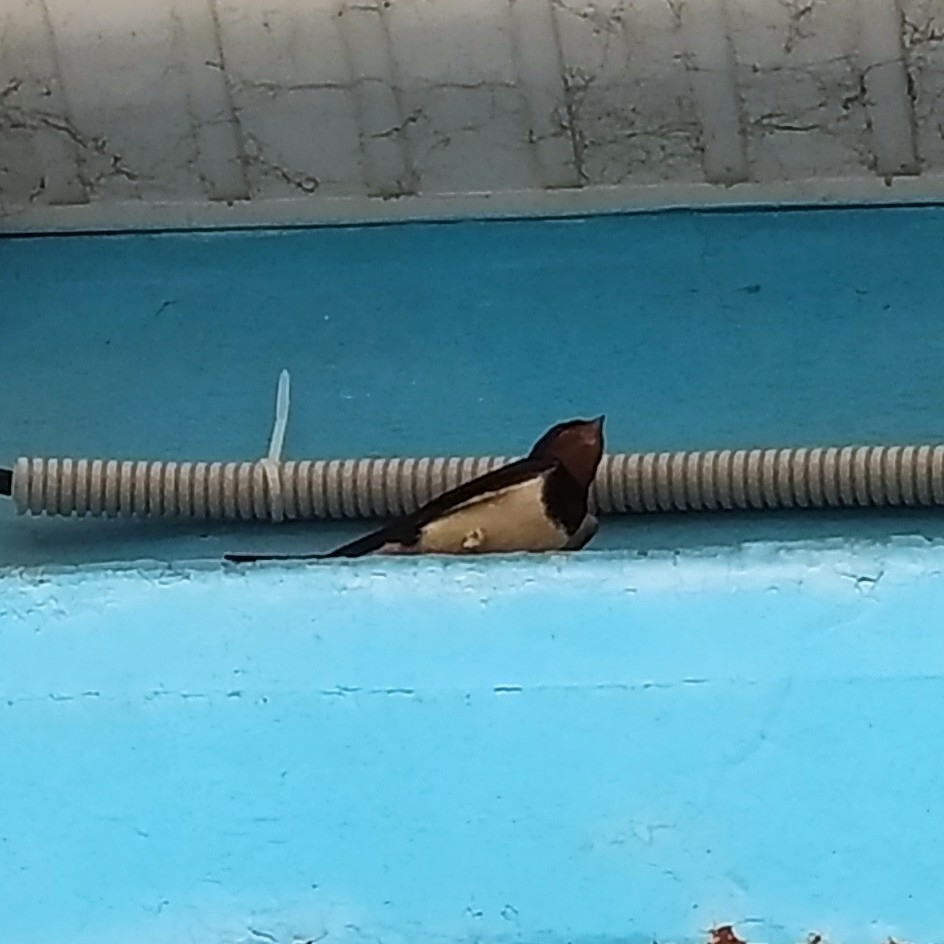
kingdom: Animalia
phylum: Chordata
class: Aves
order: Passeriformes
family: Hirundinidae
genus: Hirundo
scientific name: Hirundo rustica
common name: Barn swallow
